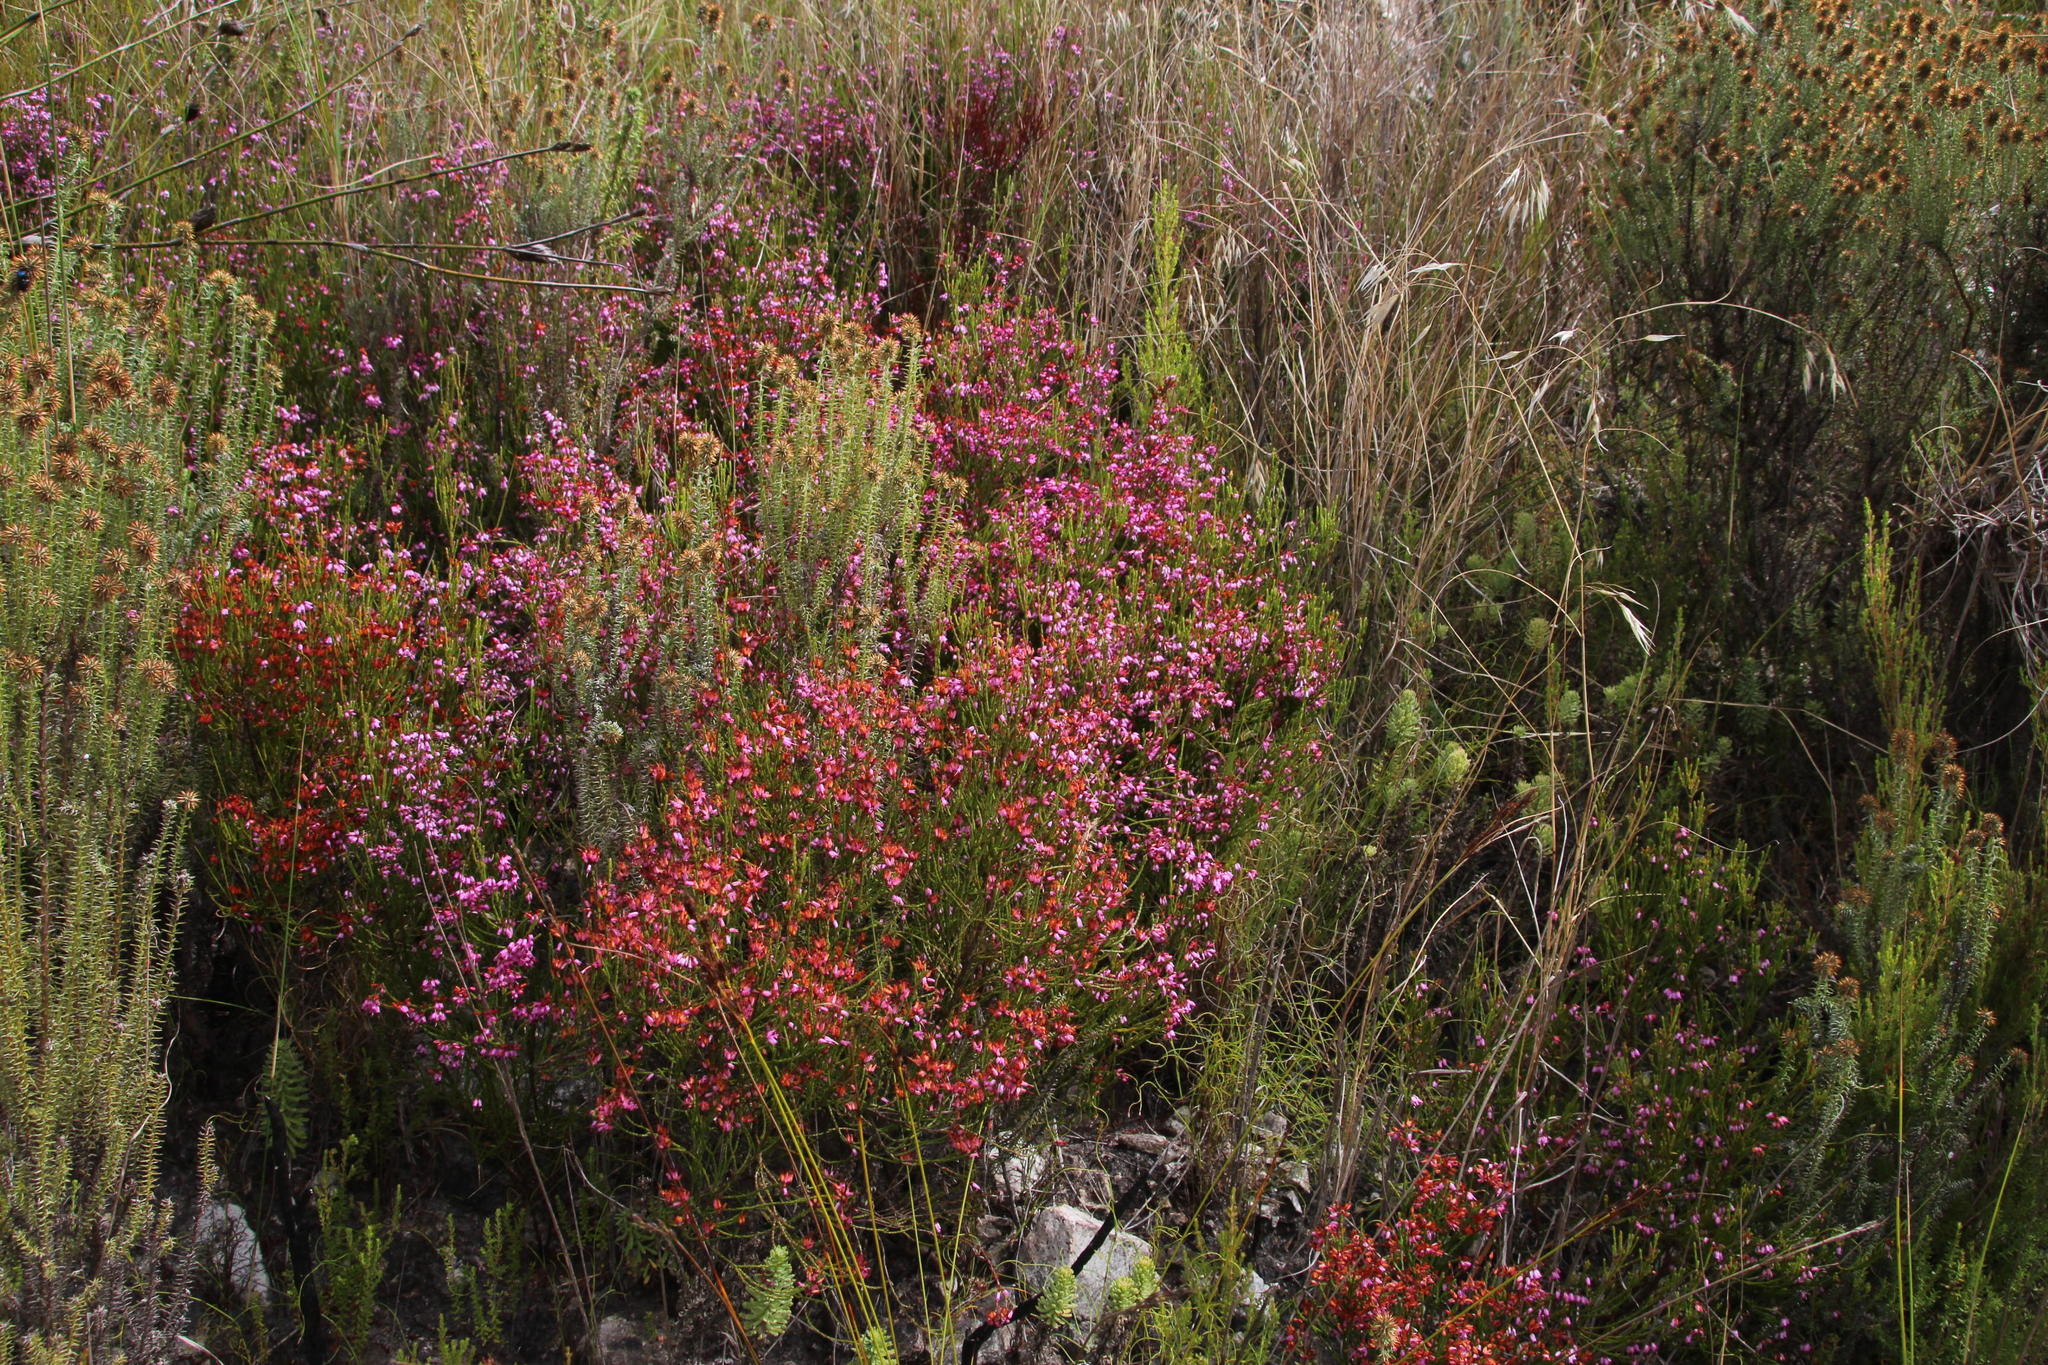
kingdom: Plantae
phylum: Tracheophyta
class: Magnoliopsida
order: Ericales
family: Ericaceae
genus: Erica
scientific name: Erica equisetifolia
